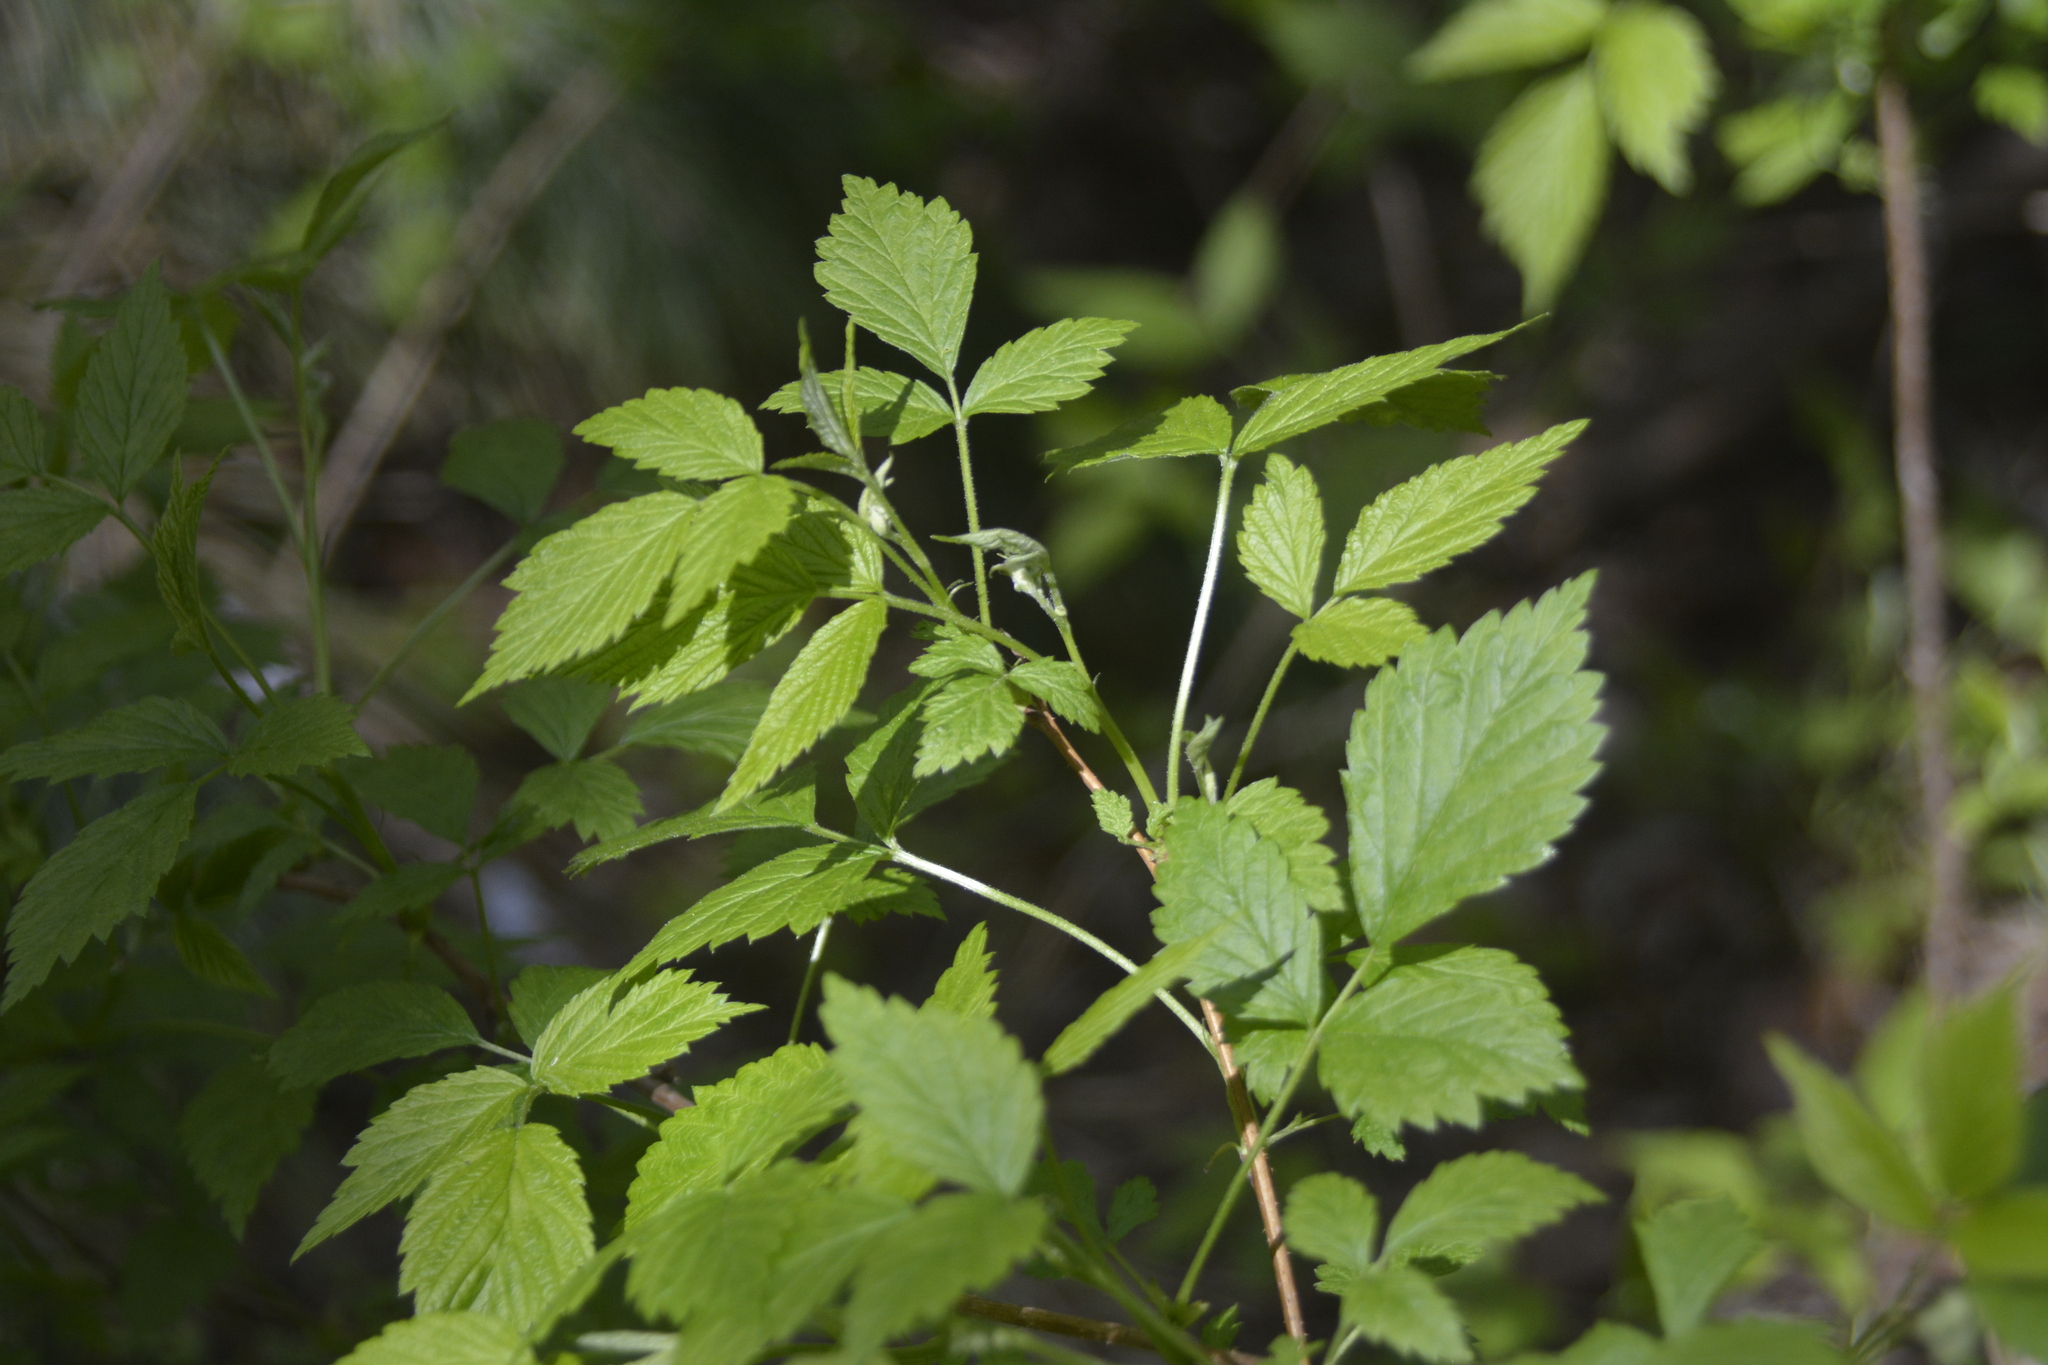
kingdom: Plantae
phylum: Tracheophyta
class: Magnoliopsida
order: Rosales
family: Rosaceae
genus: Rubus
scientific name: Rubus idaeus
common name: Raspberry
